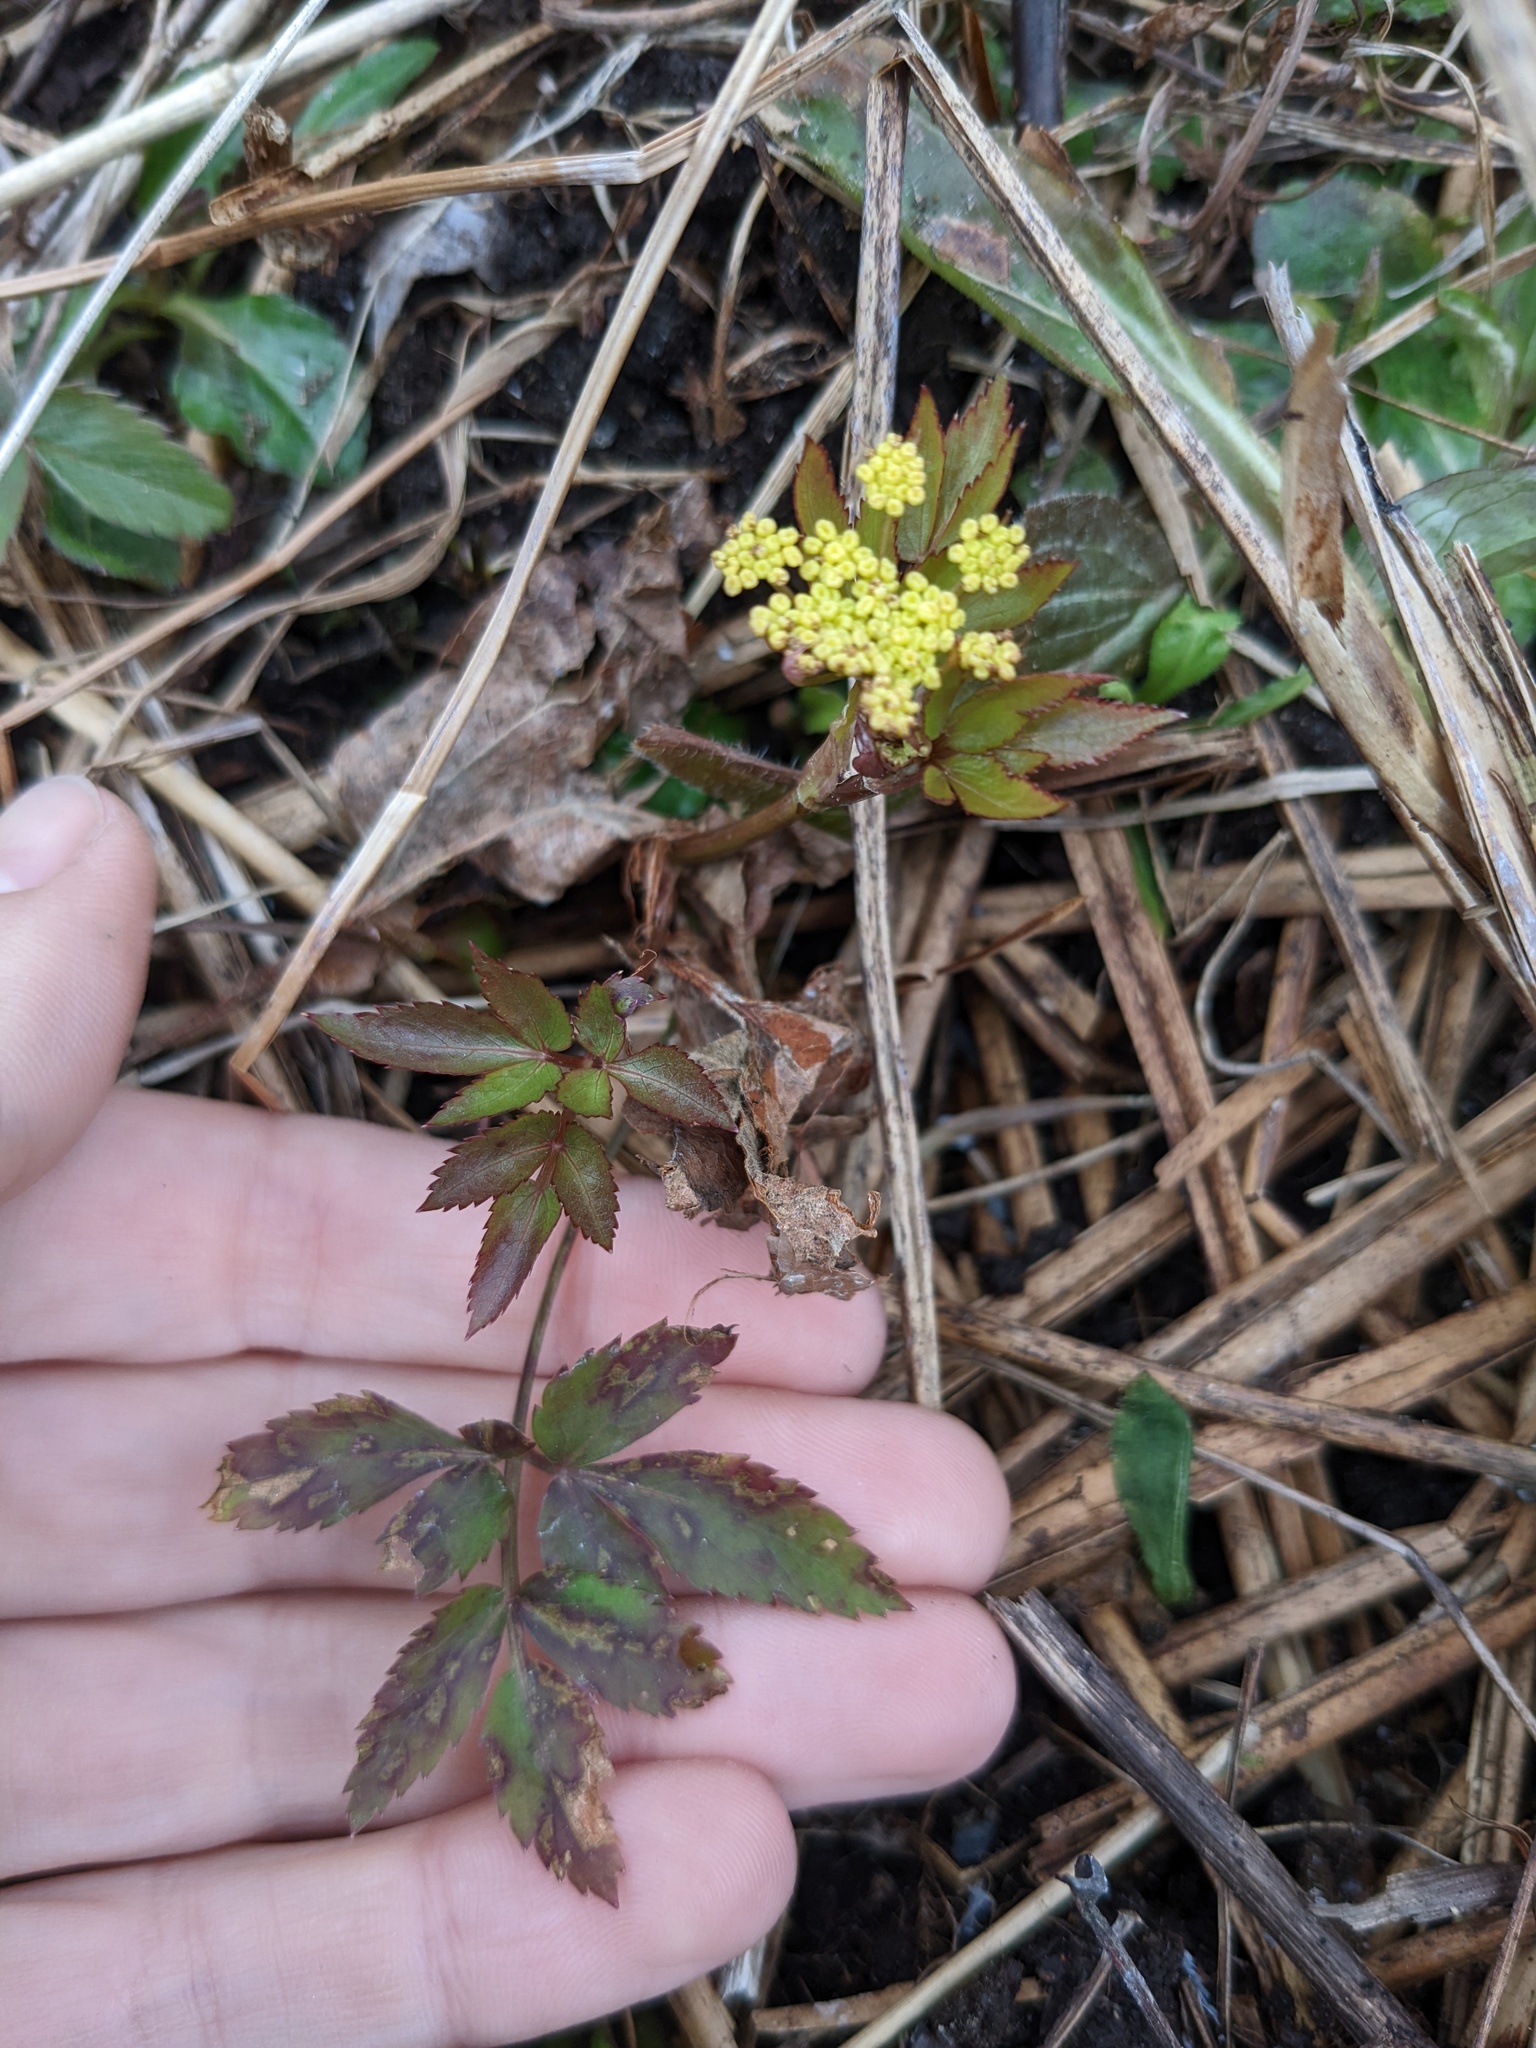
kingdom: Plantae
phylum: Tracheophyta
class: Magnoliopsida
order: Apiales
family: Apiaceae
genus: Zizia
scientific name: Zizia aurea
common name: Golden alexanders
